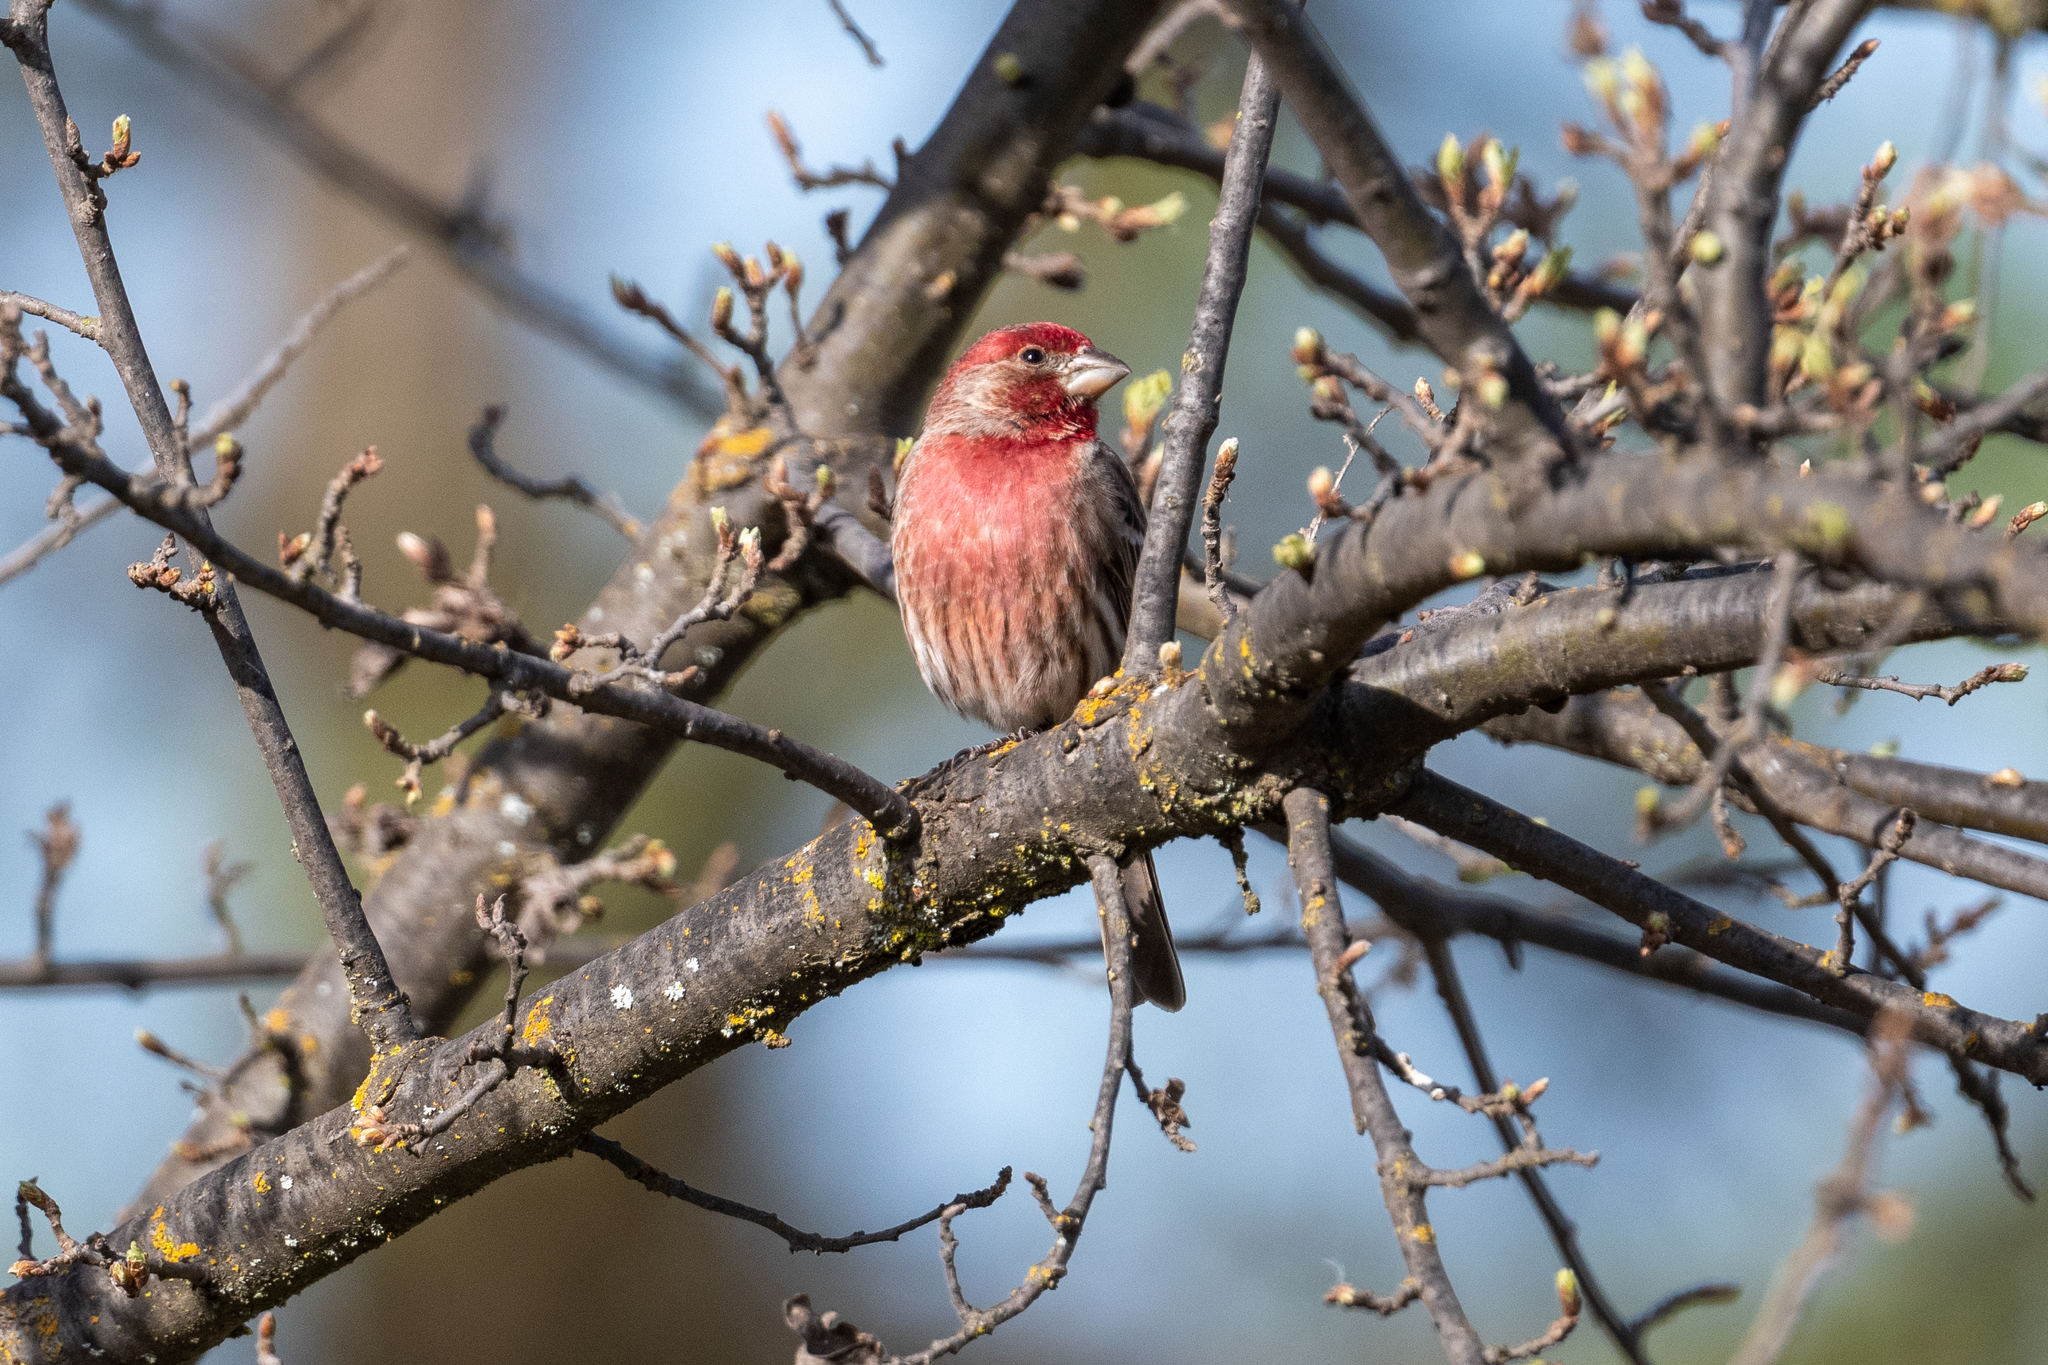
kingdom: Animalia
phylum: Chordata
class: Aves
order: Passeriformes
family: Fringillidae
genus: Haemorhous
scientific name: Haemorhous mexicanus
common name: House finch
